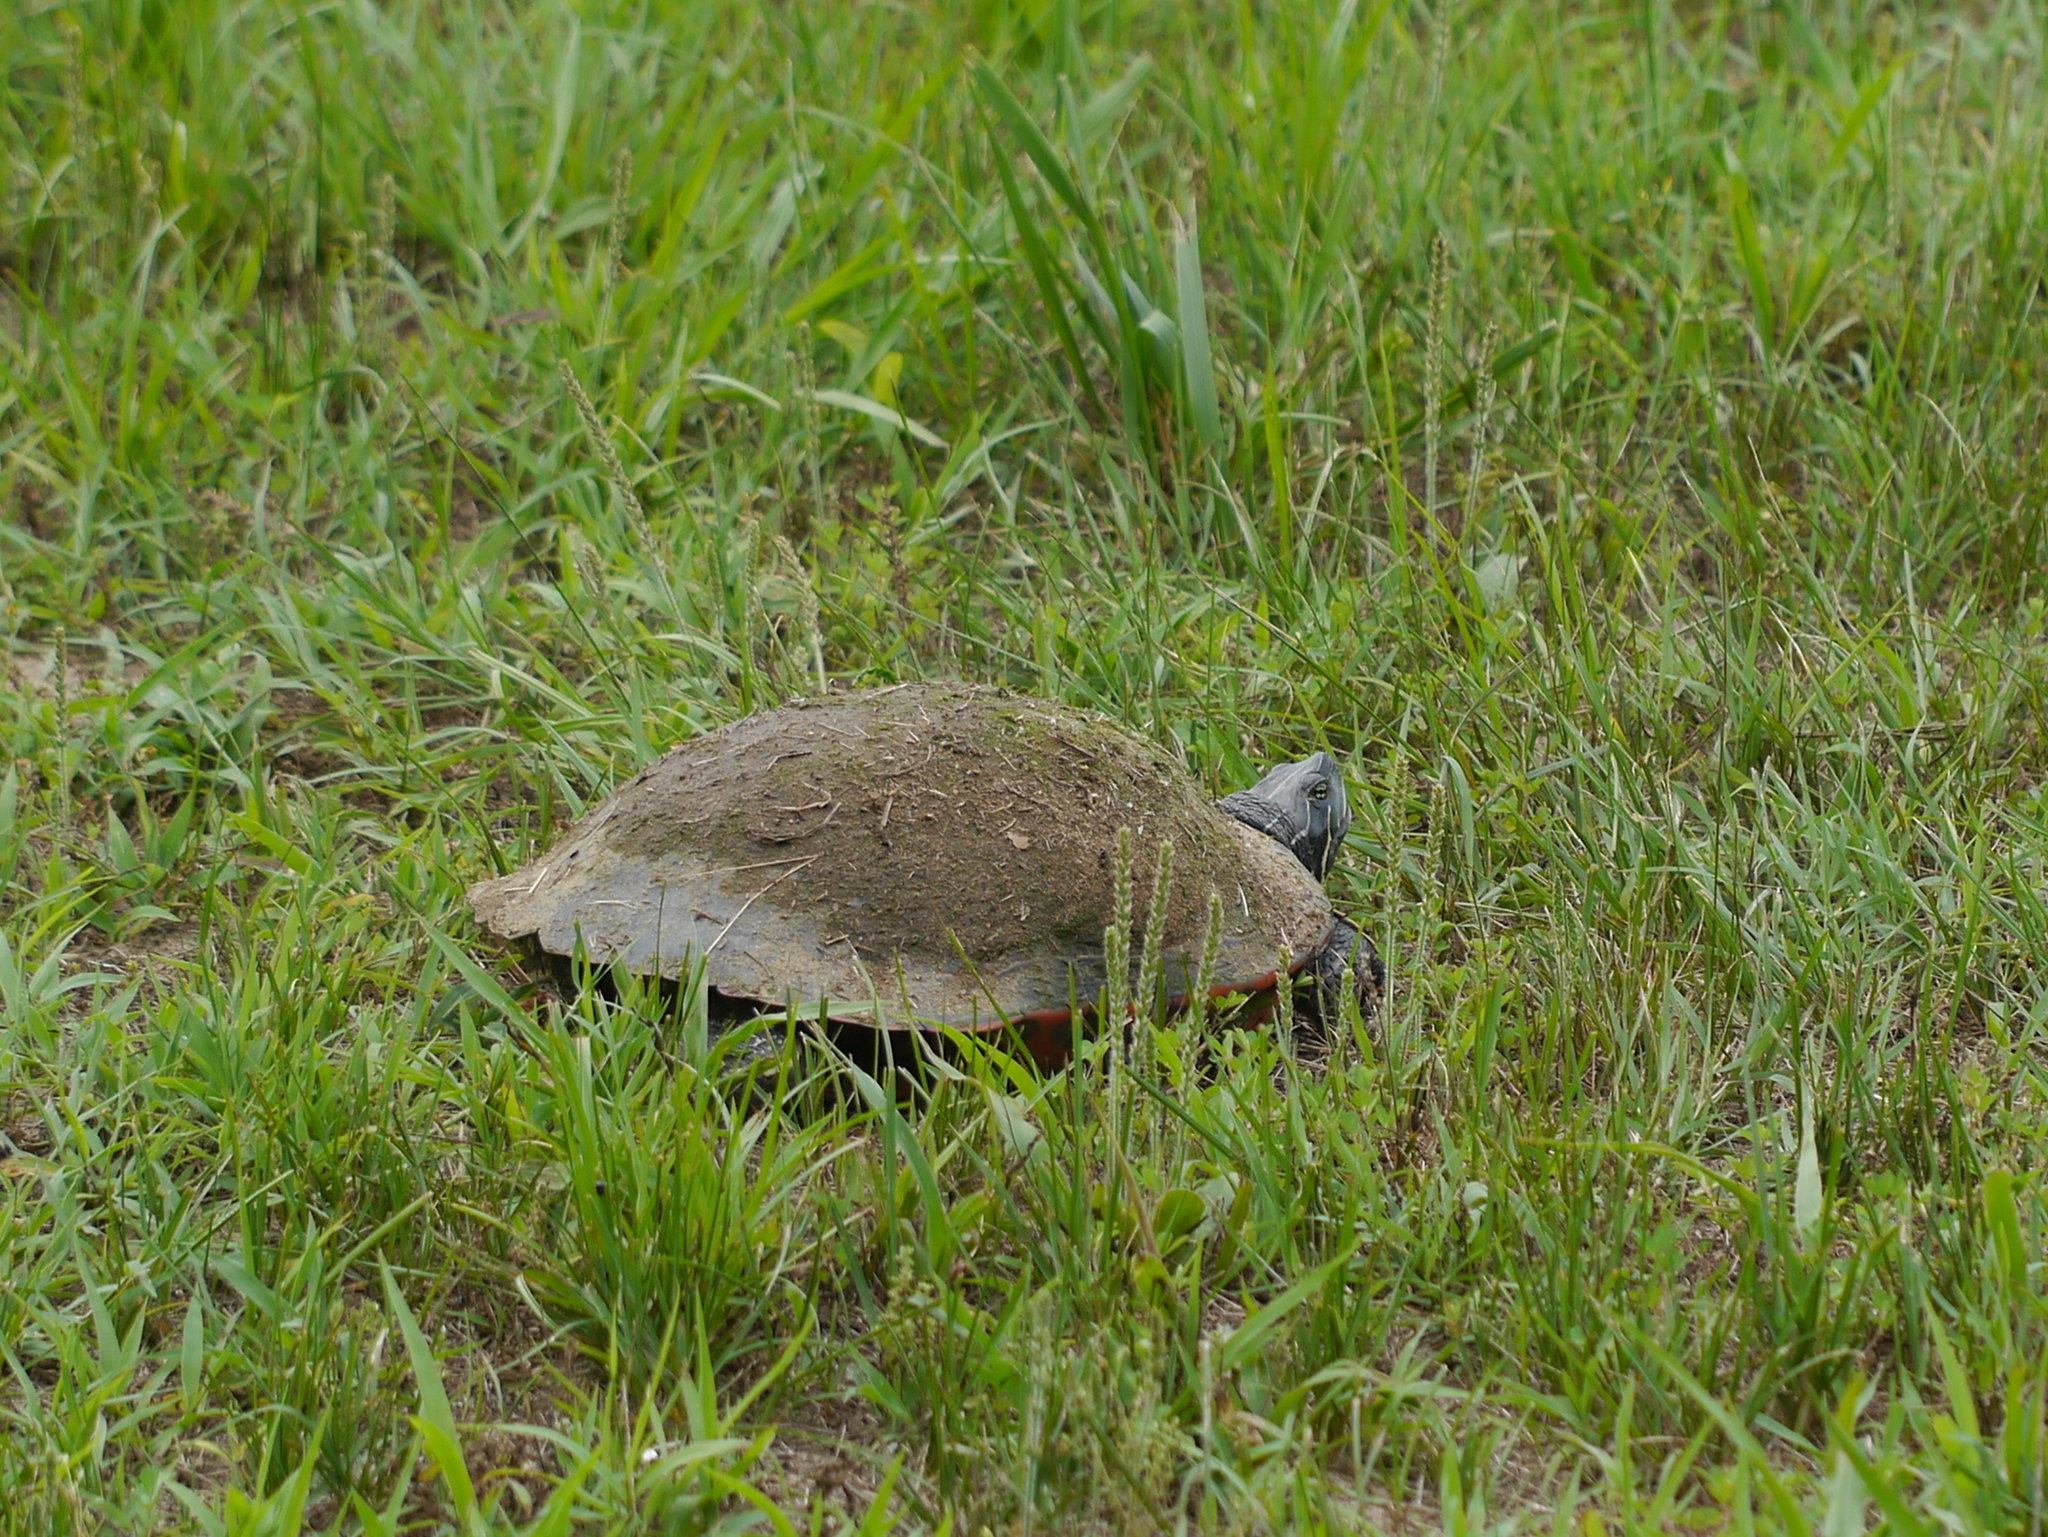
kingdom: Animalia
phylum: Chordata
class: Testudines
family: Emydidae
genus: Pseudemys
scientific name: Pseudemys rubriventris
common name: American red-bellied turtle
